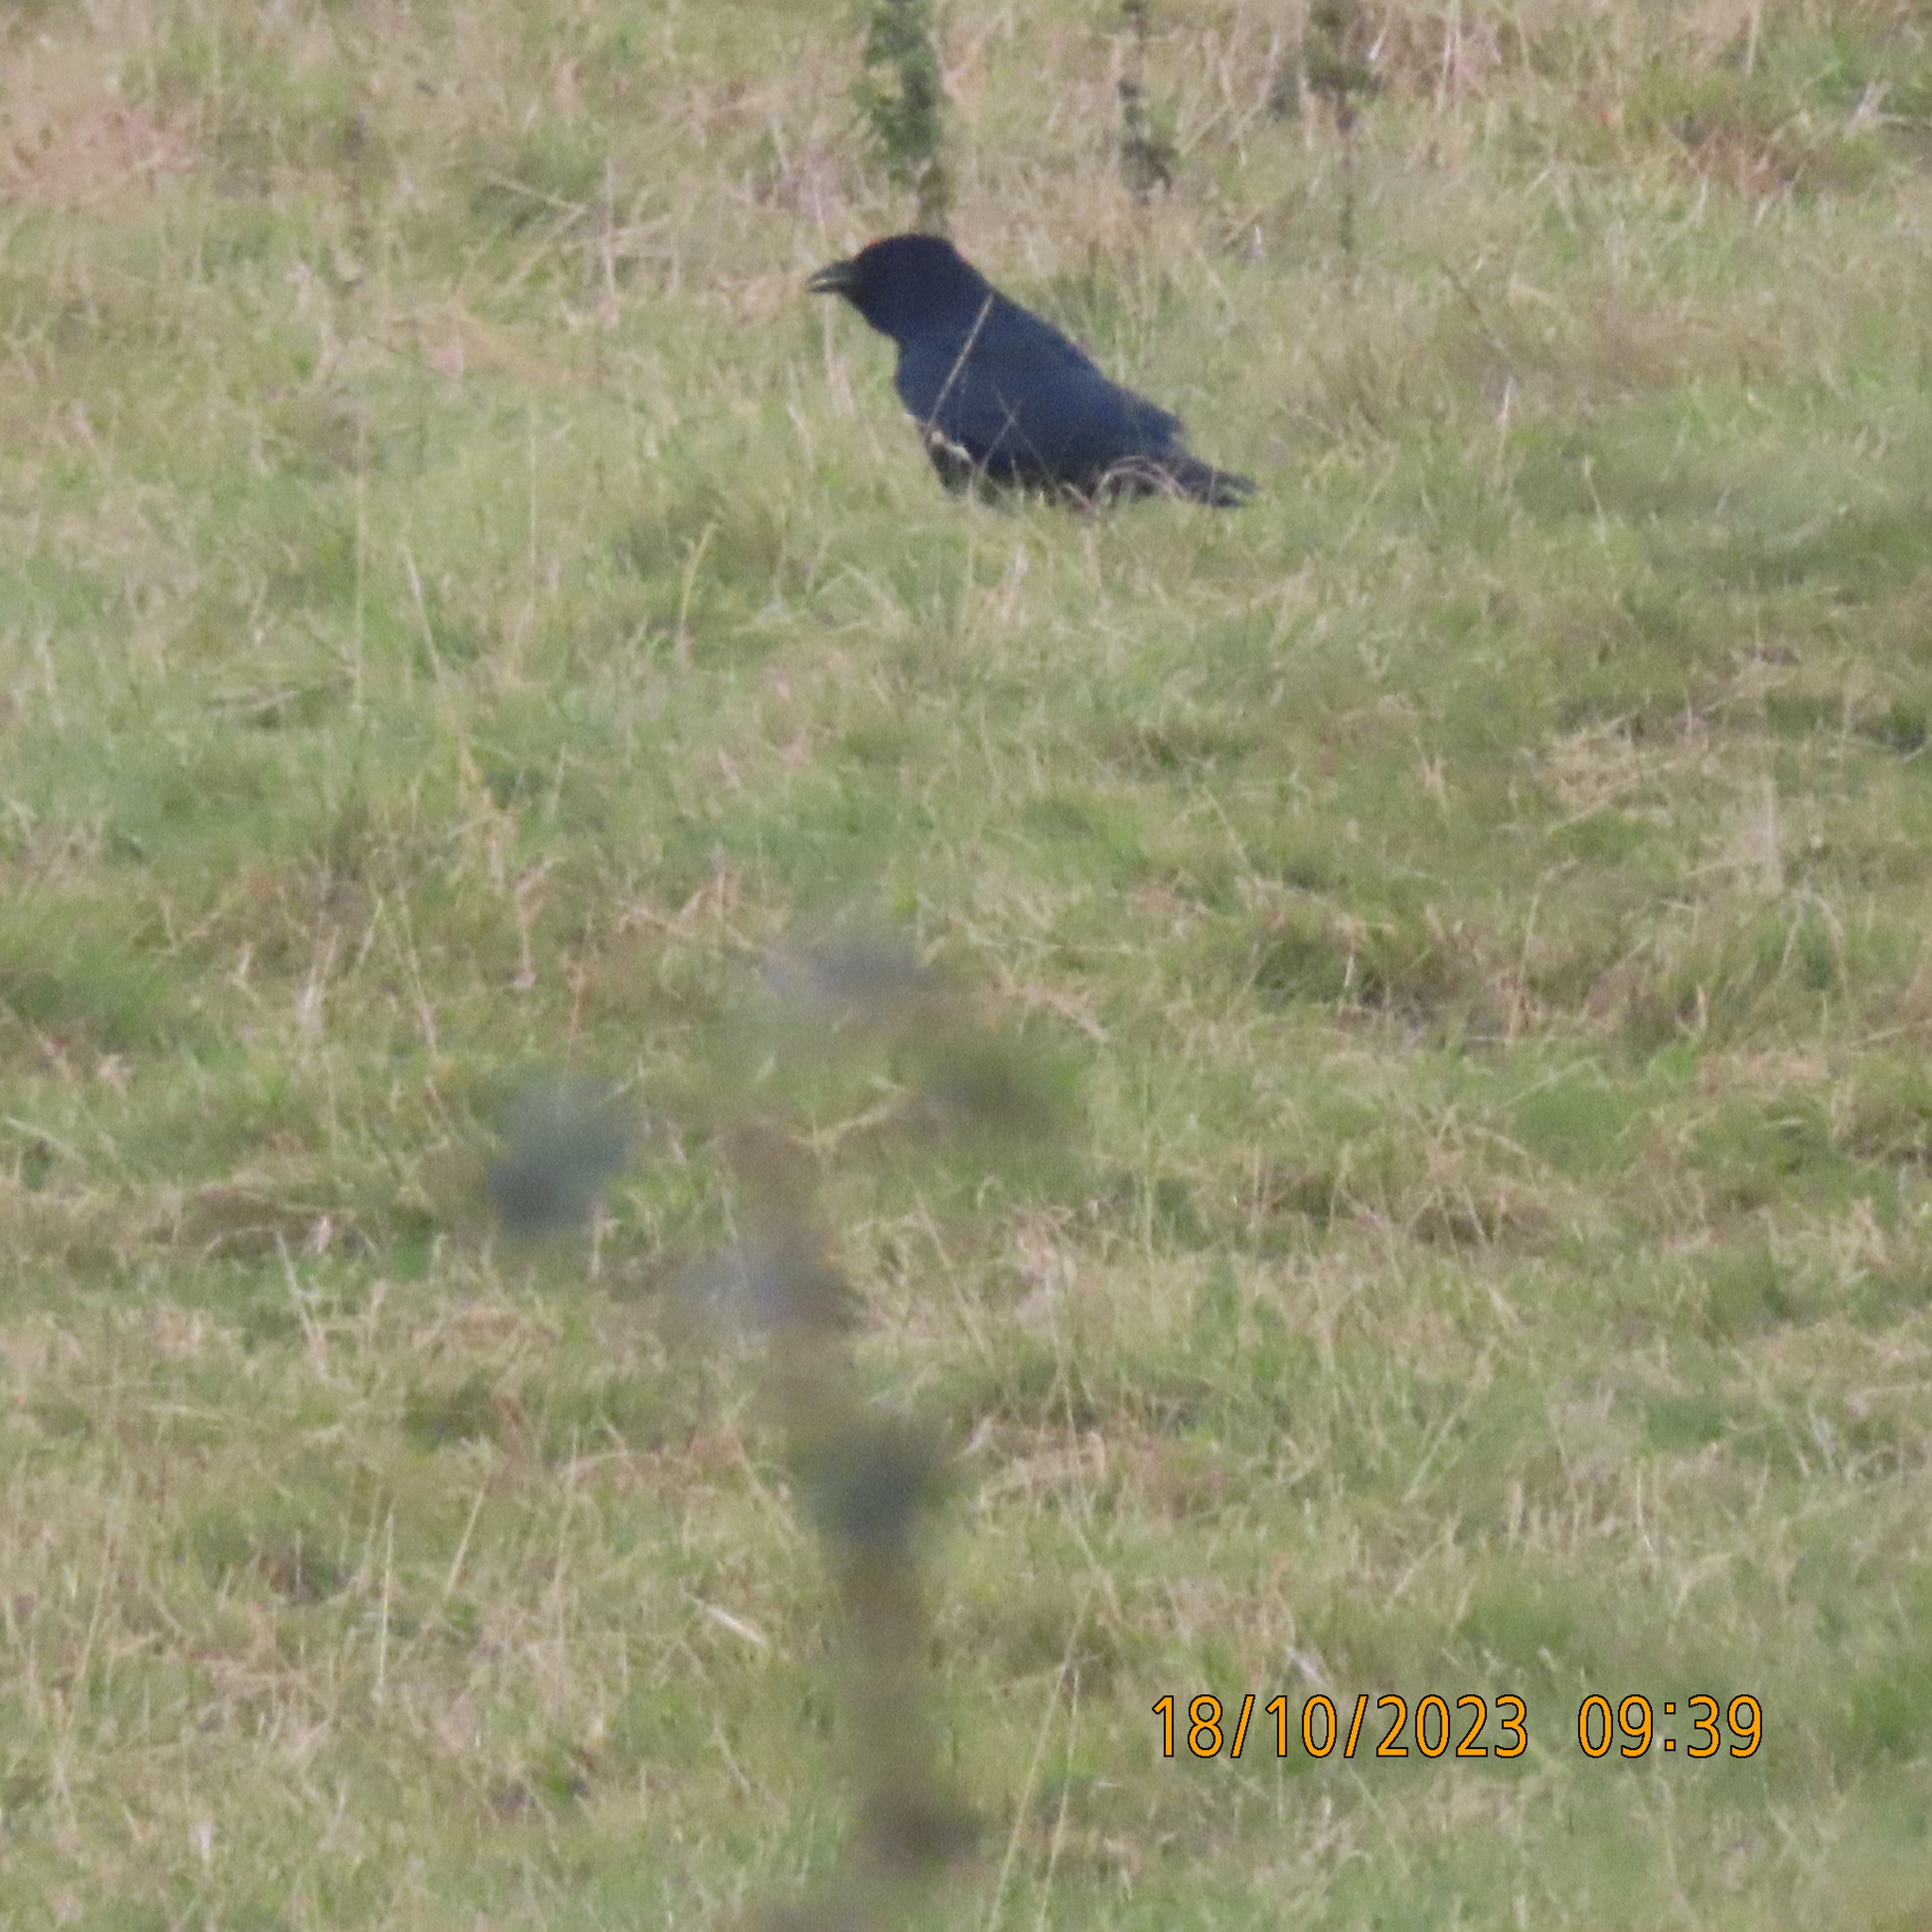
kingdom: Animalia
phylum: Chordata
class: Aves
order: Passeriformes
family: Corvidae
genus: Corvus
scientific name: Corvus corone
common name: Carrion crow
